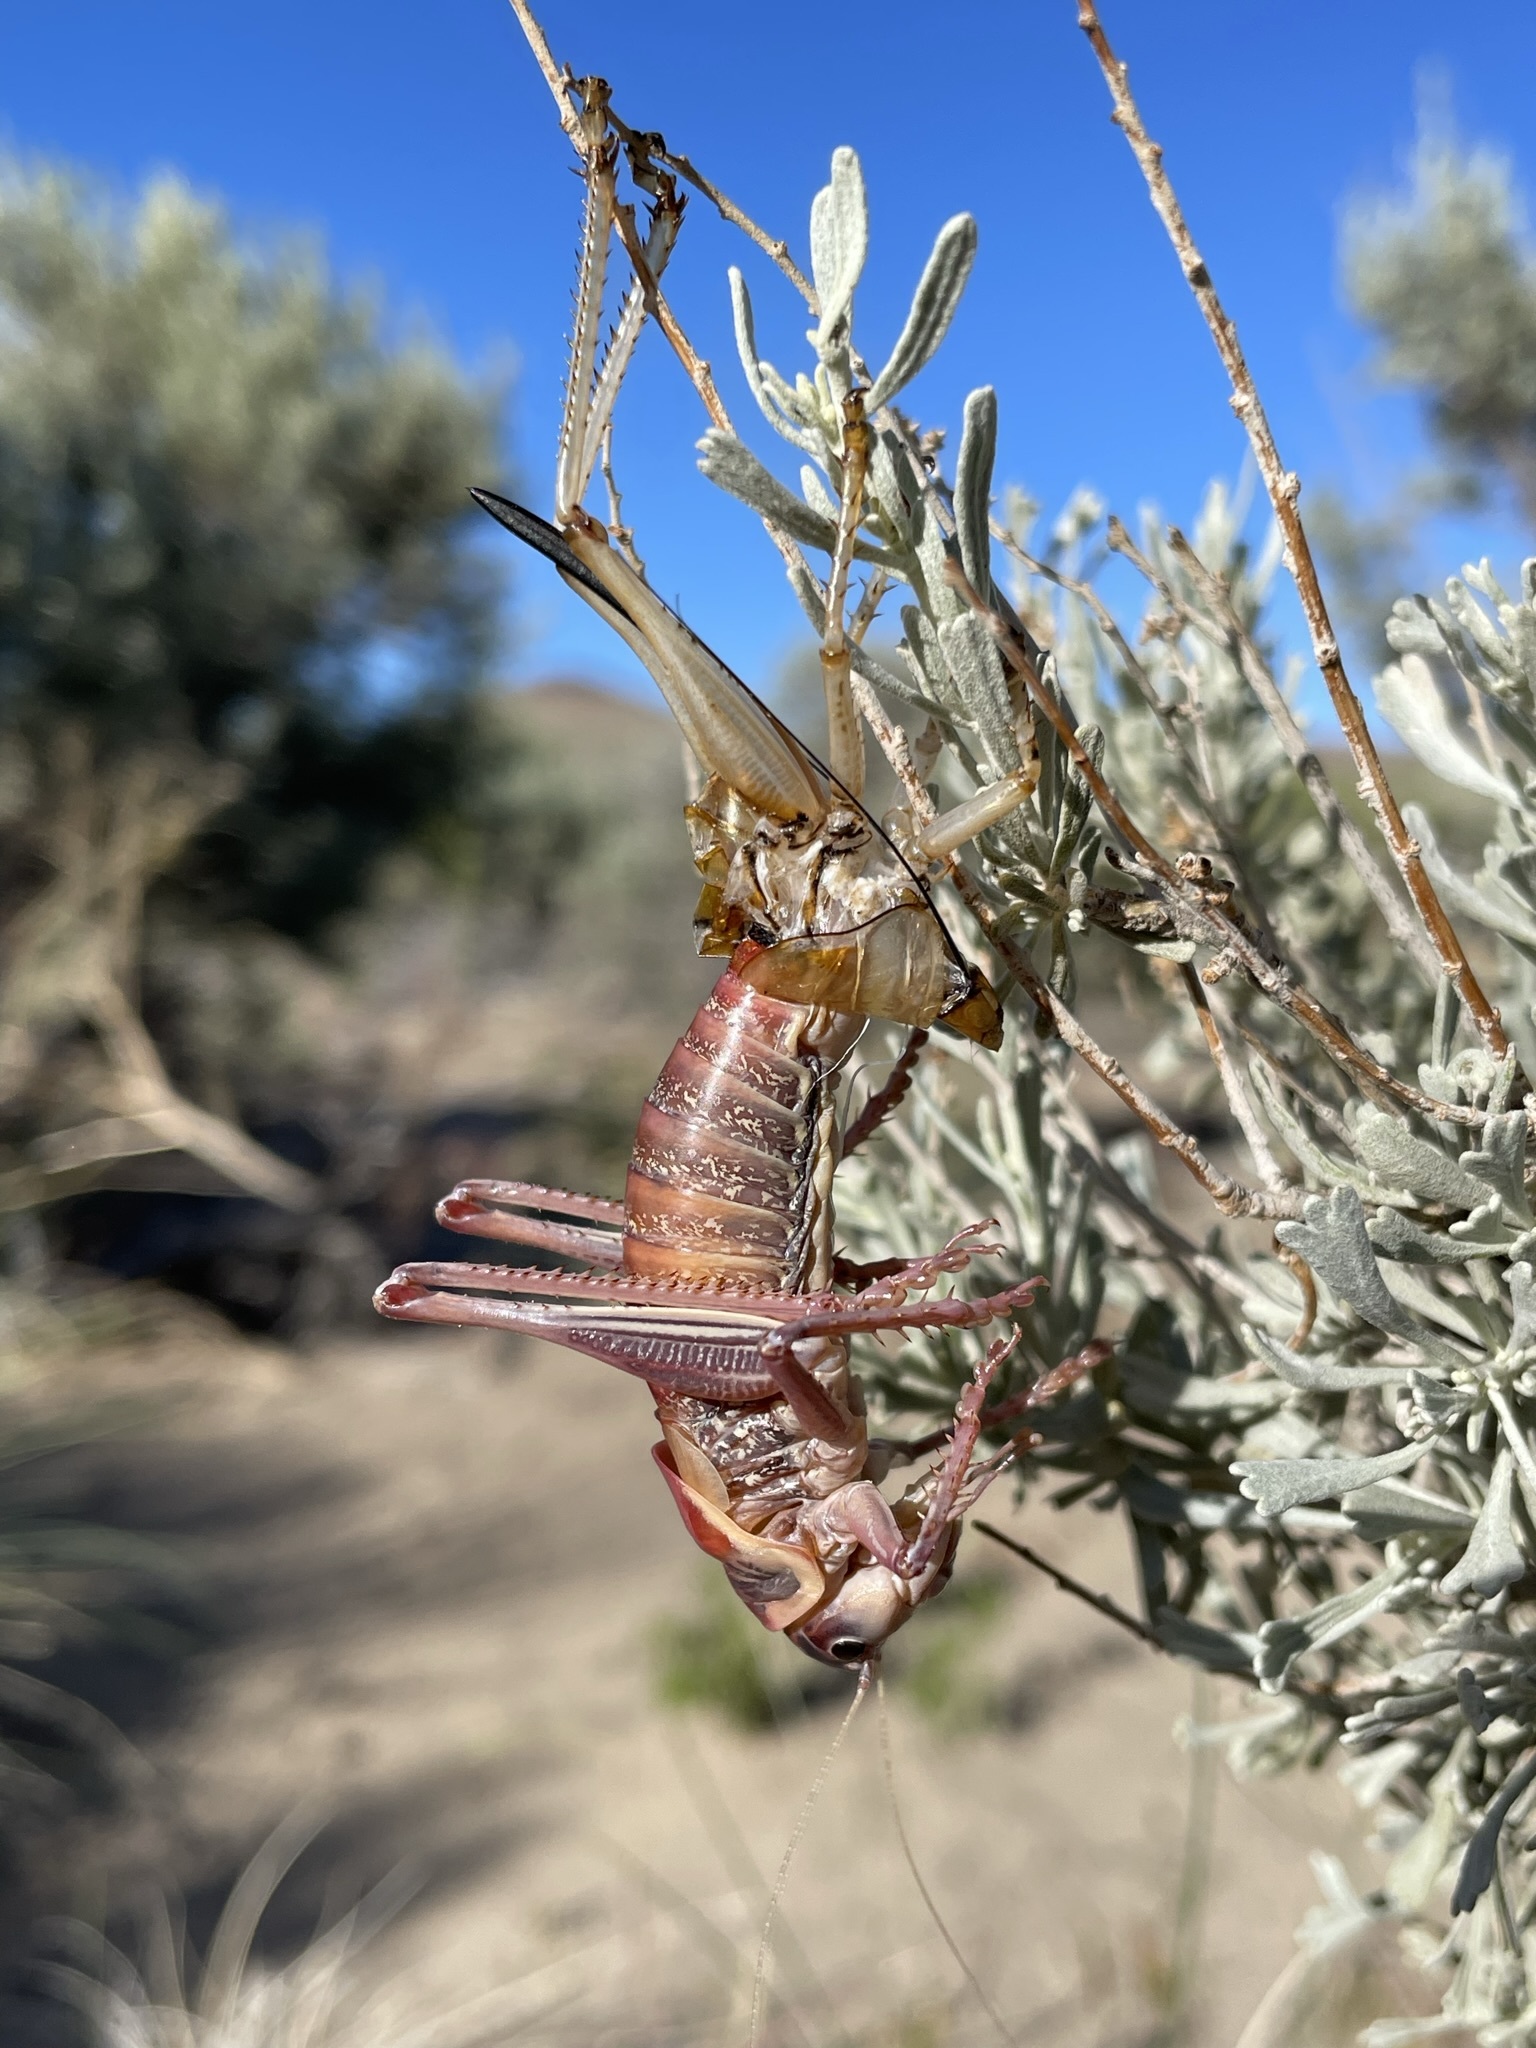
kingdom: Animalia
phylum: Arthropoda
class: Insecta
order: Orthoptera
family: Tettigoniidae
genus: Anabrus
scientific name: Anabrus simplex
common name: Mormon cricket
